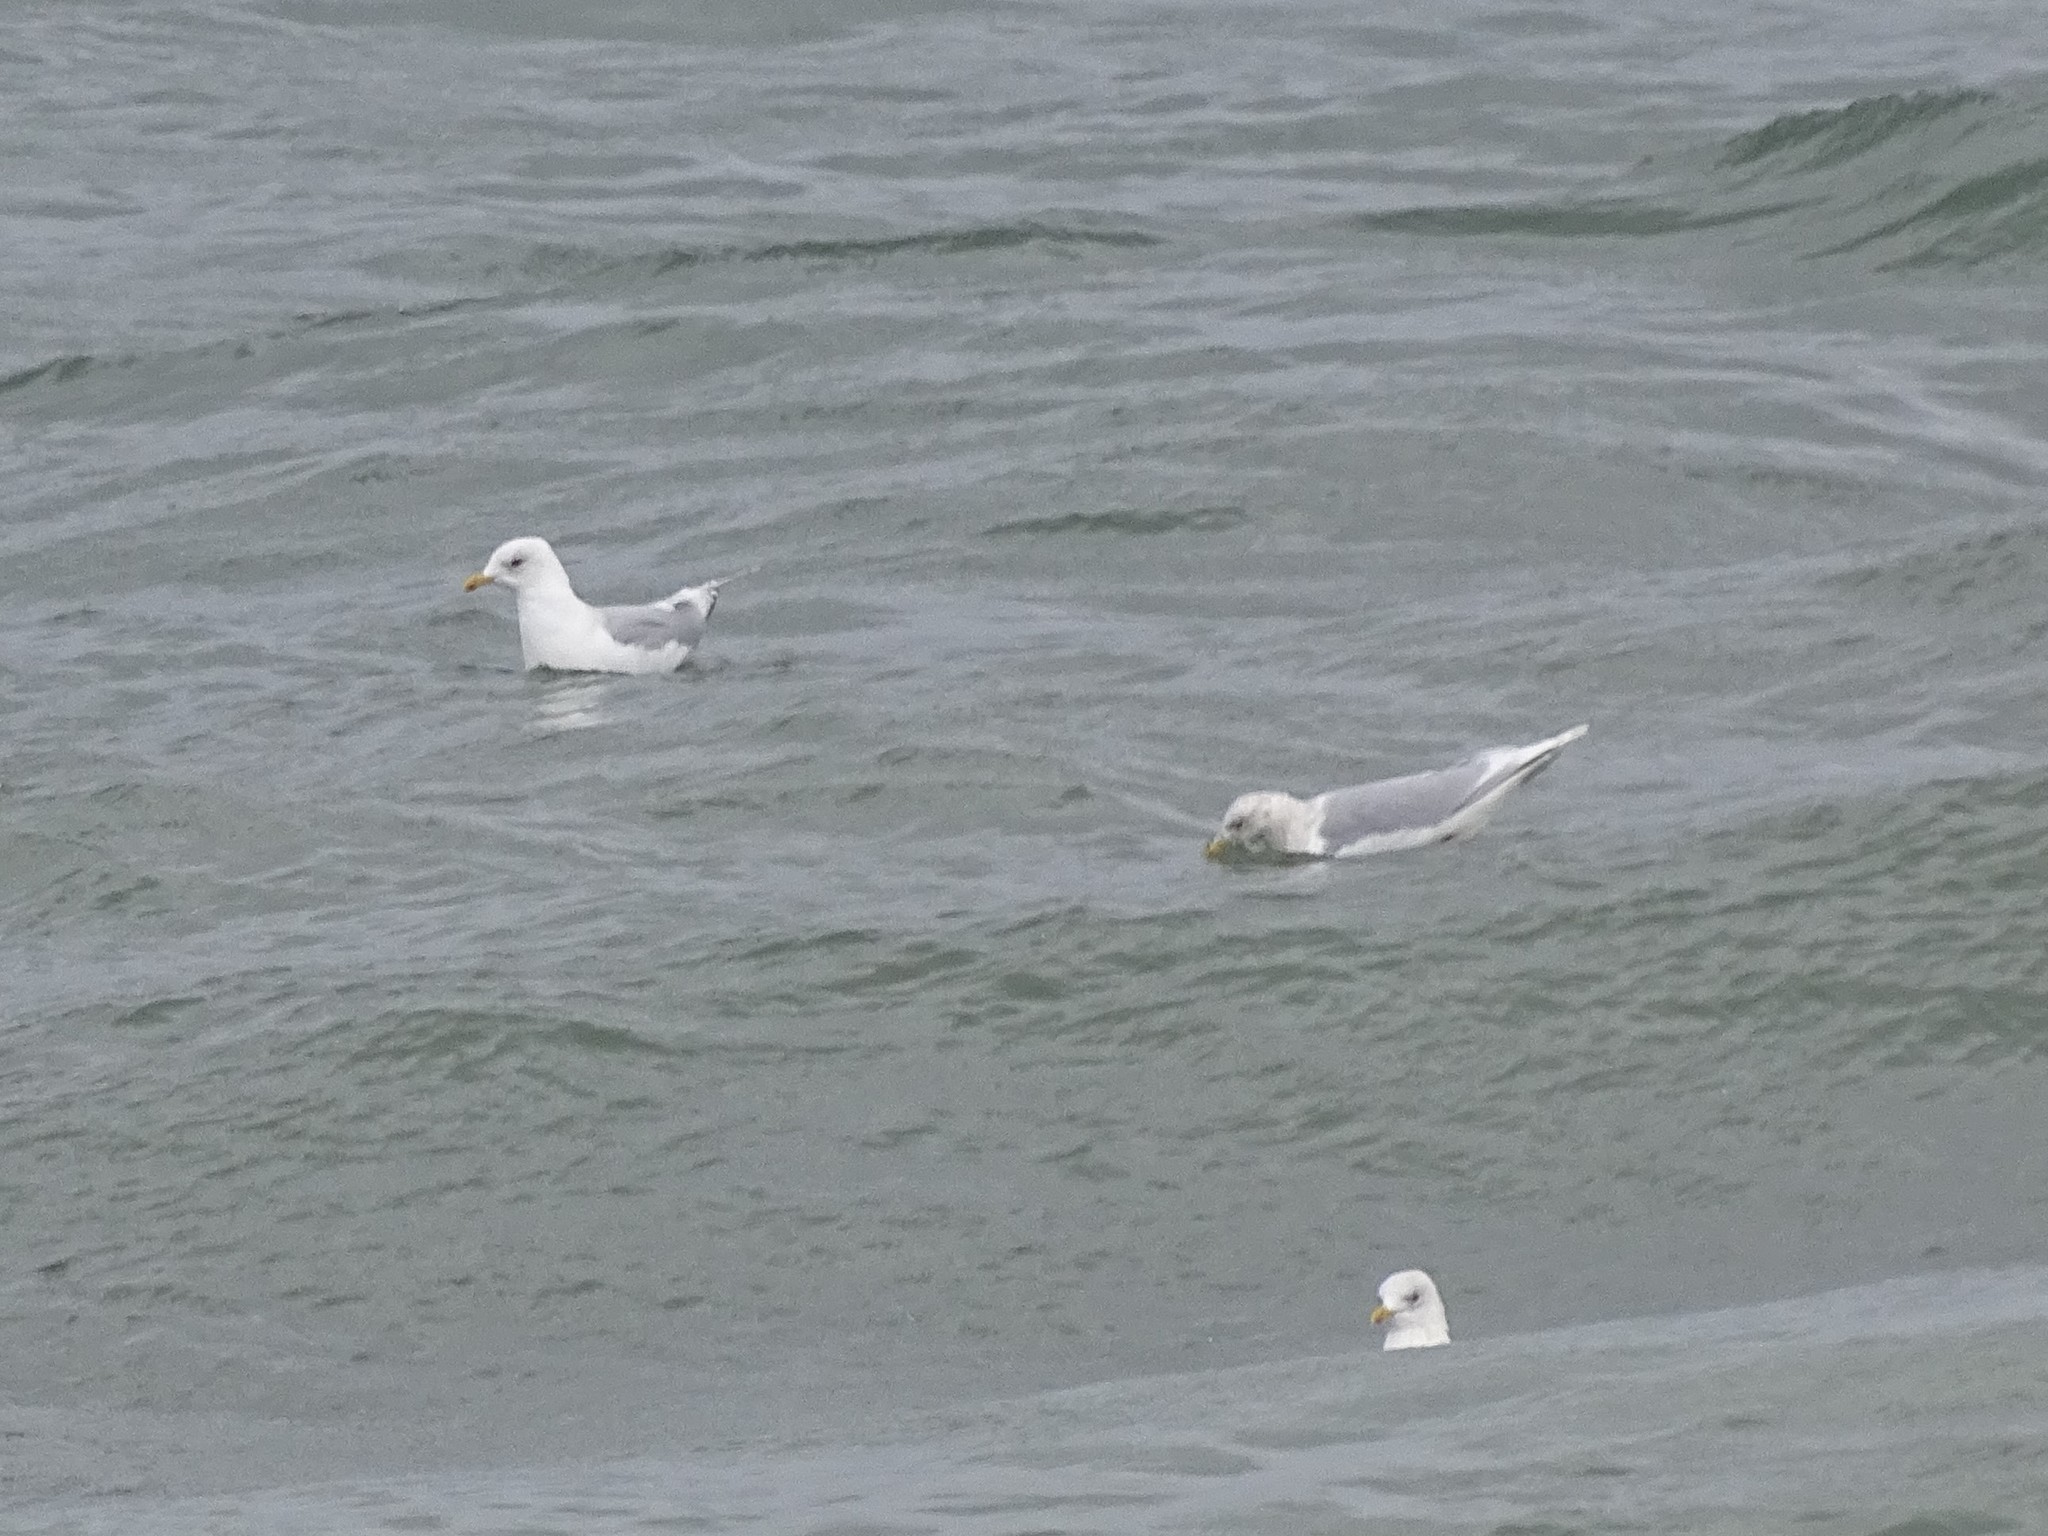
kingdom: Animalia
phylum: Chordata
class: Aves
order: Charadriiformes
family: Laridae
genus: Larus
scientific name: Larus glaucoides
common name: Iceland gull
